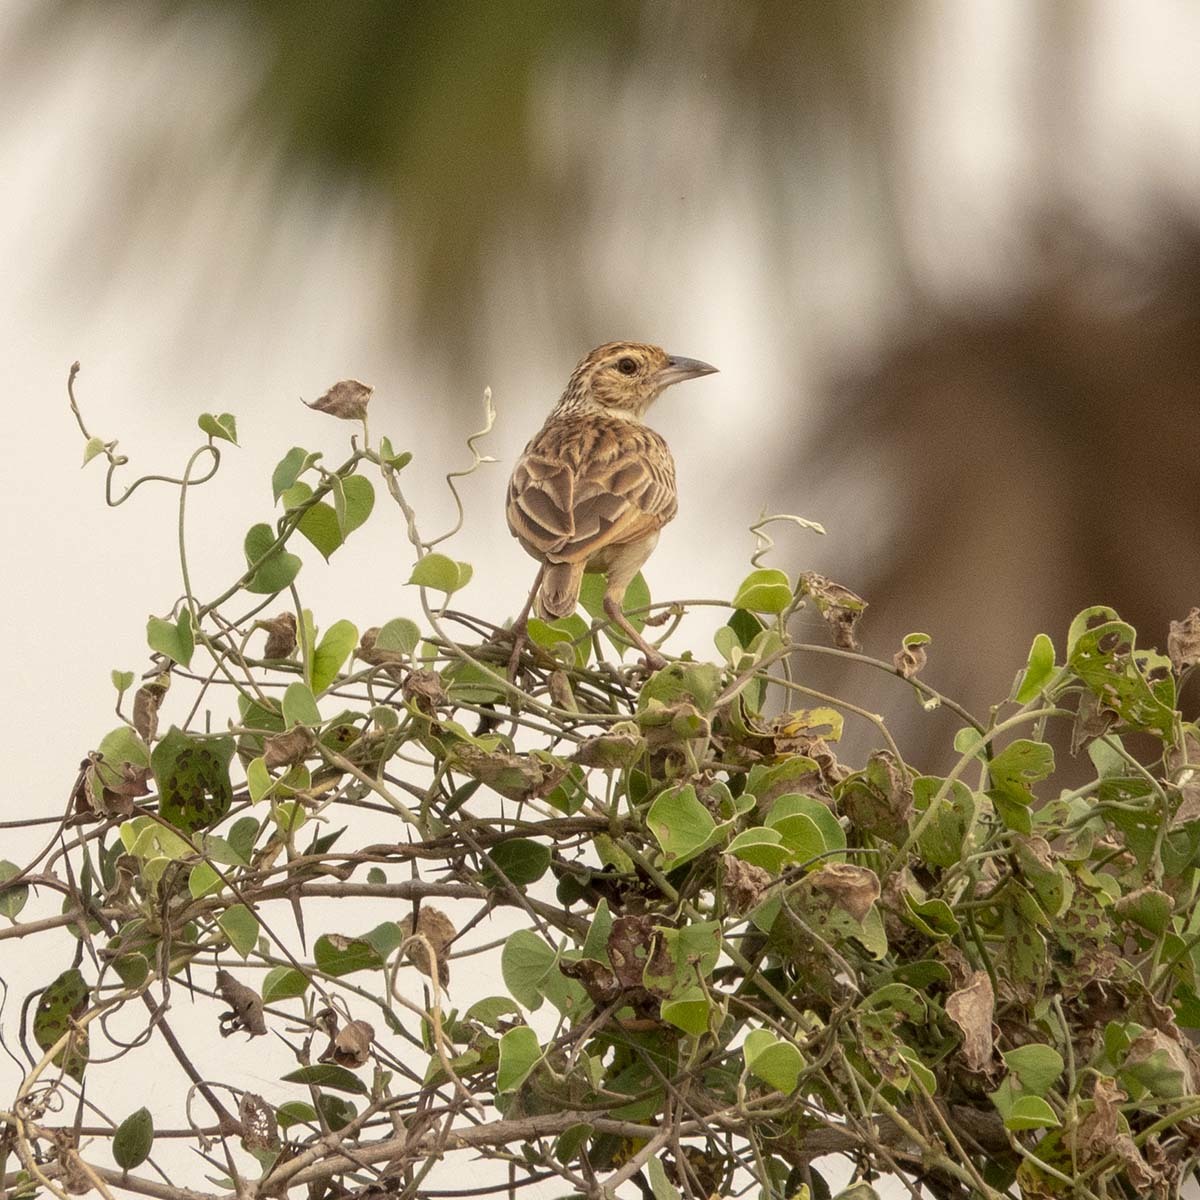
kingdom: Animalia
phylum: Chordata
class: Aves
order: Passeriformes
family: Alaudidae
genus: Mirafra
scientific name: Mirafra affinis
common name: Jerdon's bushlark
